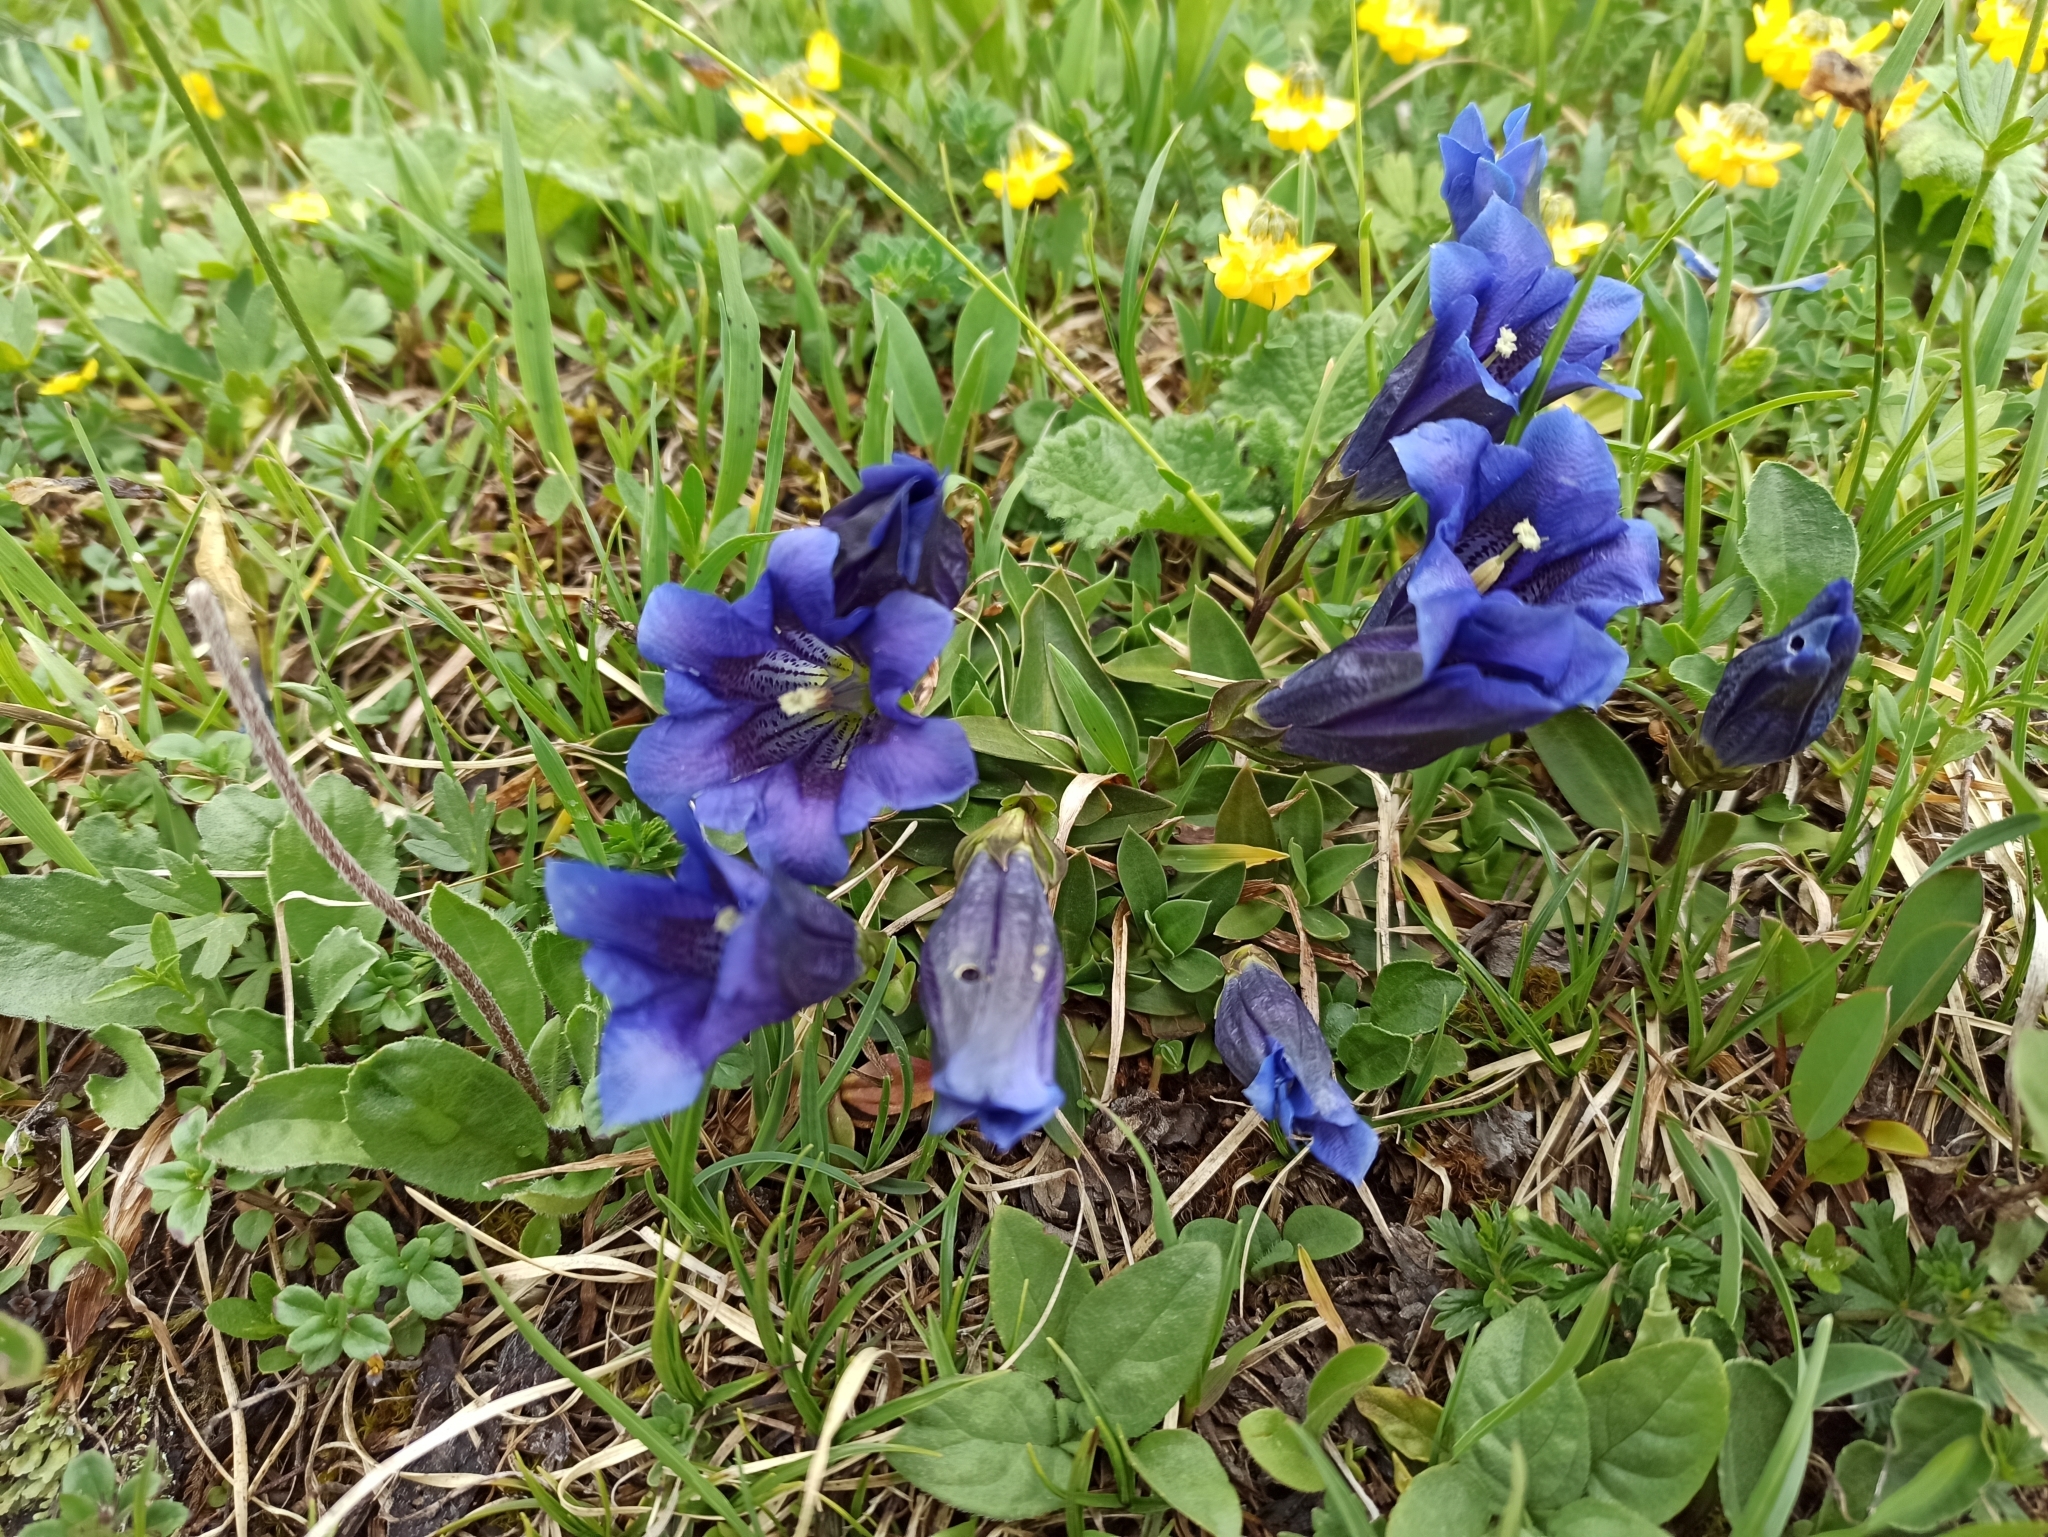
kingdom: Plantae
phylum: Tracheophyta
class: Magnoliopsida
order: Gentianales
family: Gentianaceae
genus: Gentiana
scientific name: Gentiana clusii
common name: Trumpet gentian
